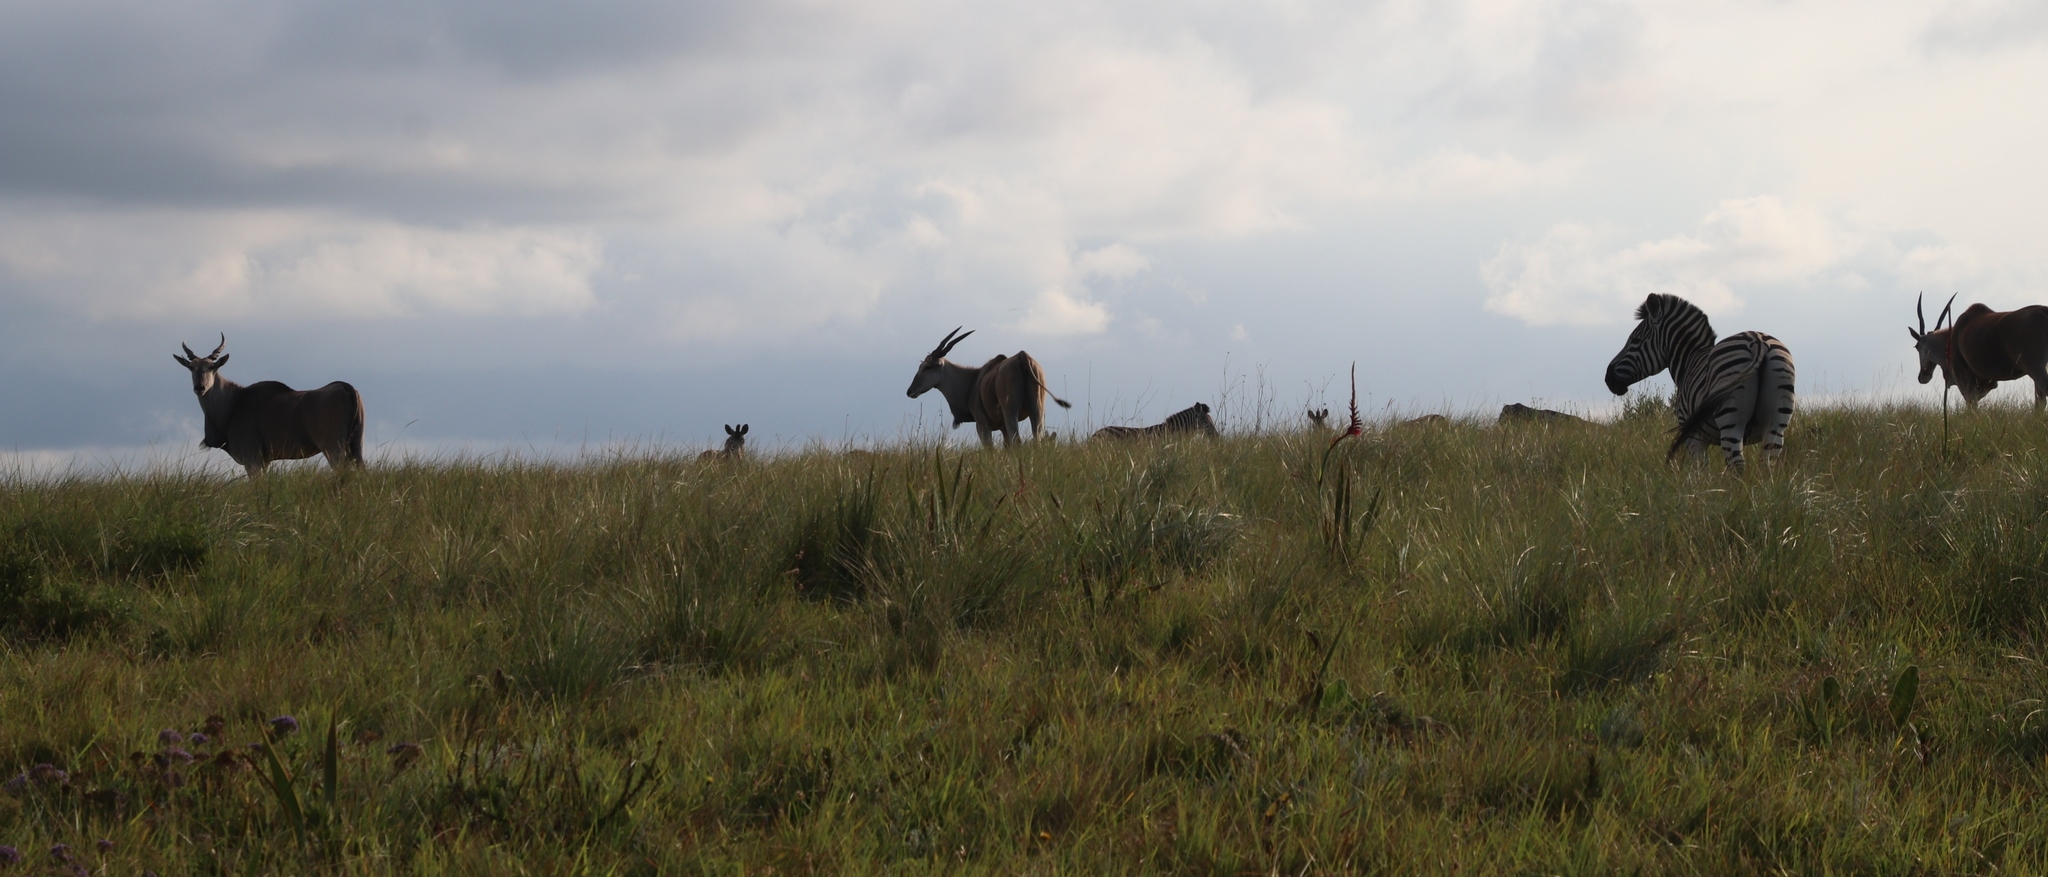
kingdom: Animalia
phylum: Chordata
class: Mammalia
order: Artiodactyla
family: Bovidae
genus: Taurotragus
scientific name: Taurotragus oryx
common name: Common eland
